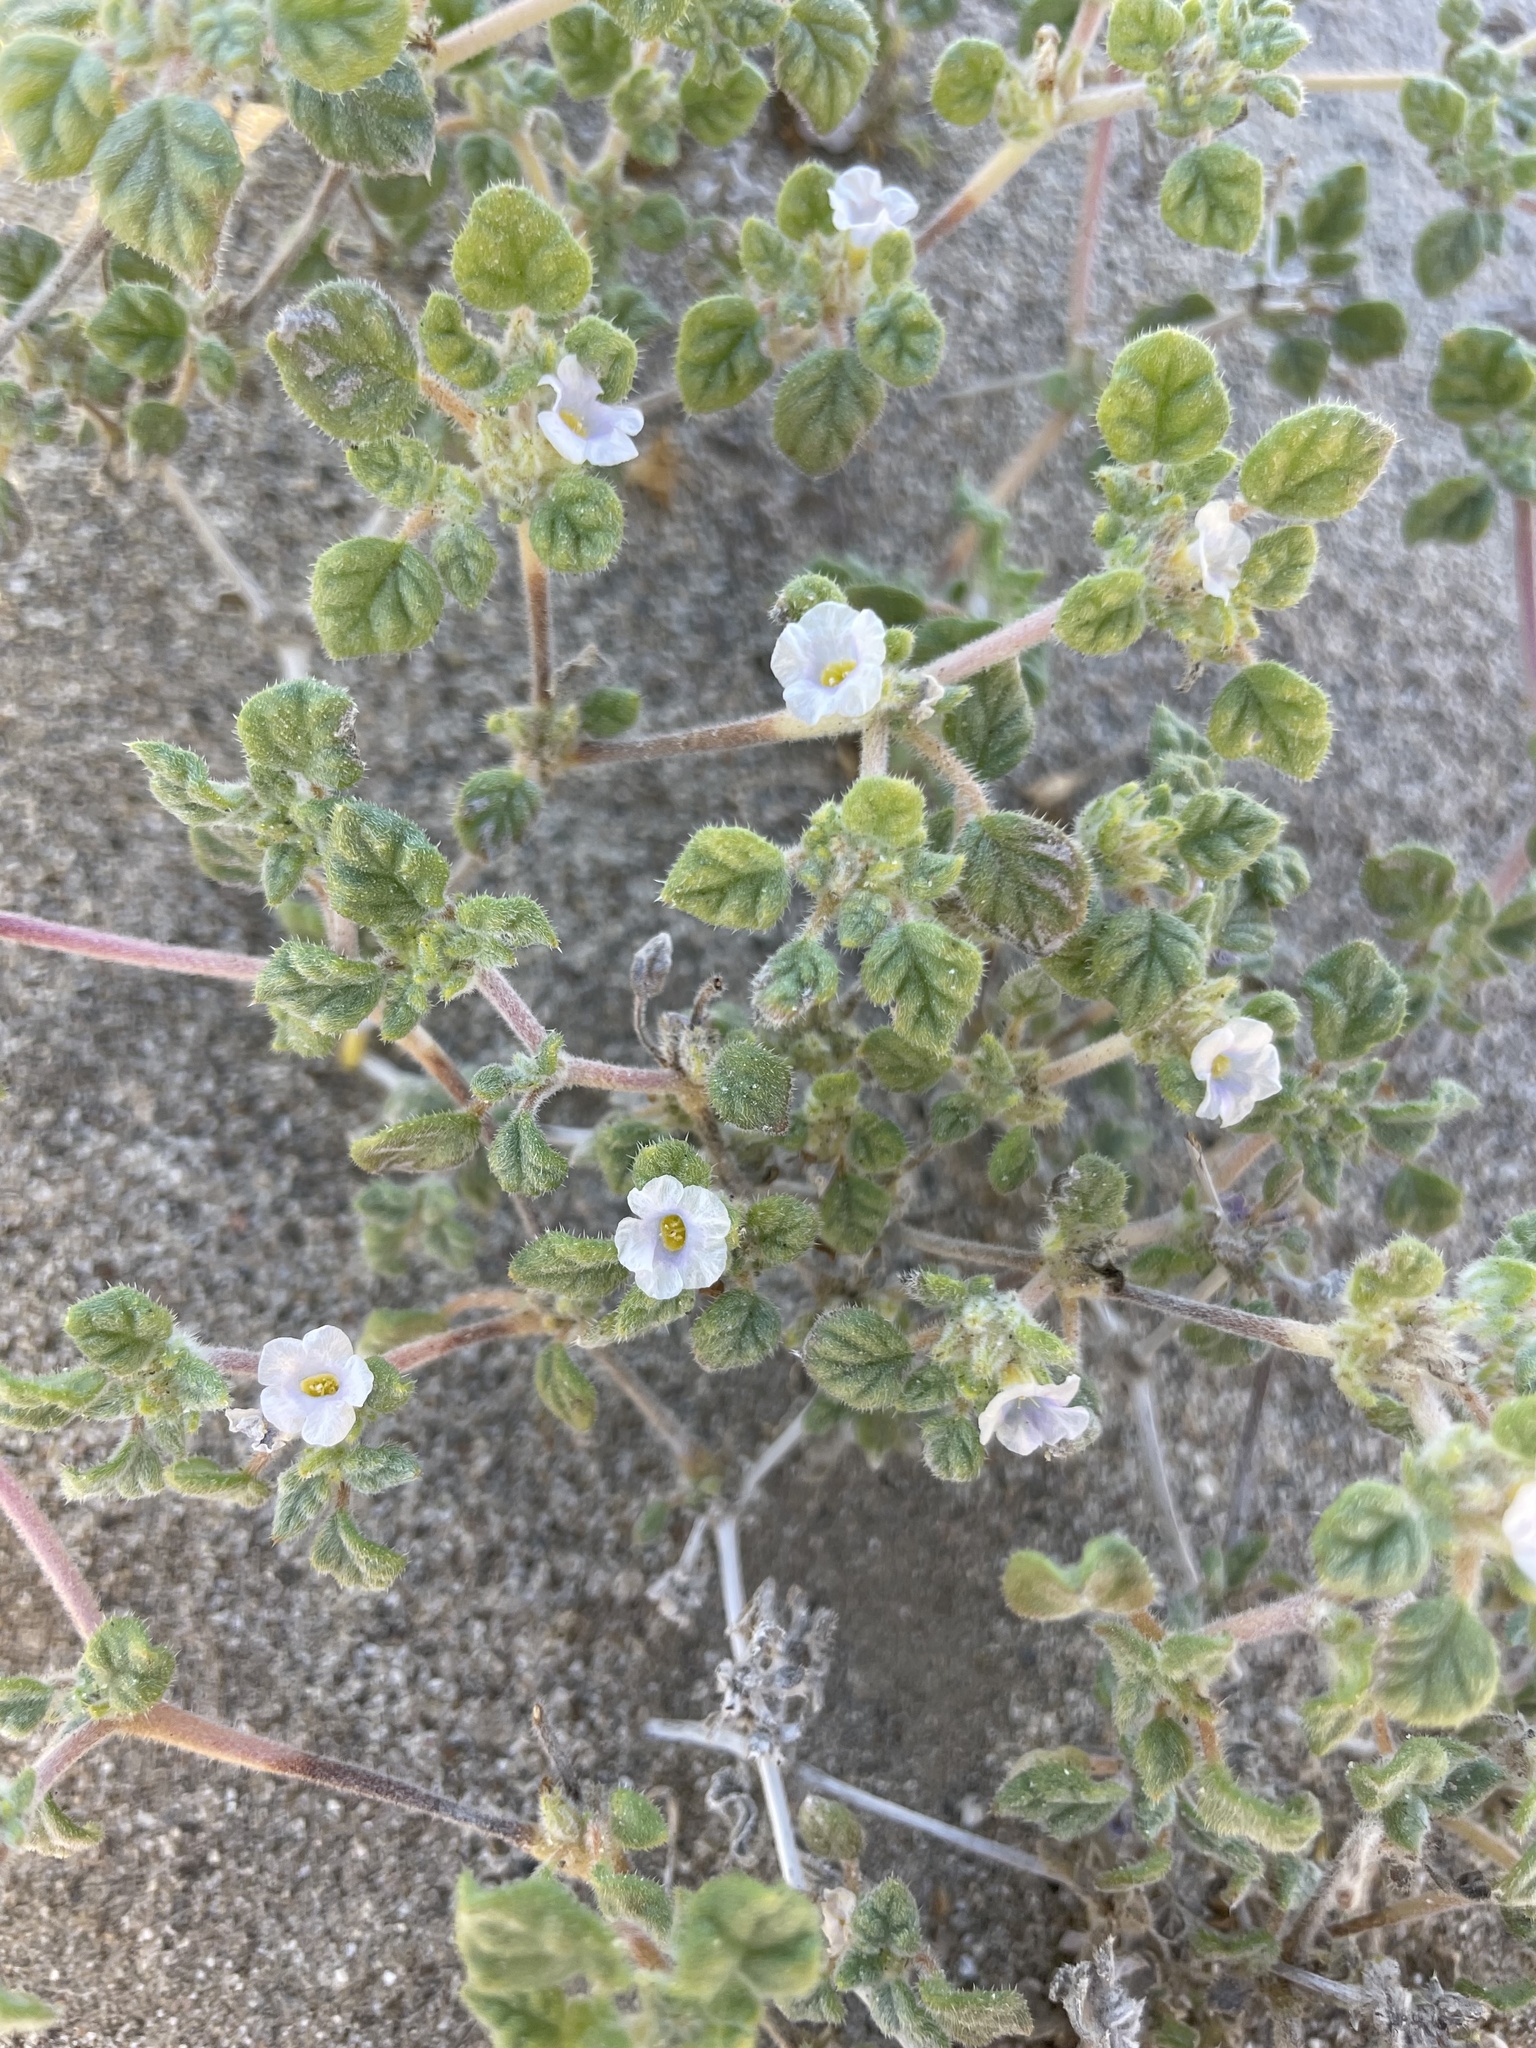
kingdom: Plantae
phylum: Tracheophyta
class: Magnoliopsida
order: Boraginales
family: Ehretiaceae
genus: Tiquilia
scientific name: Tiquilia palmeri
